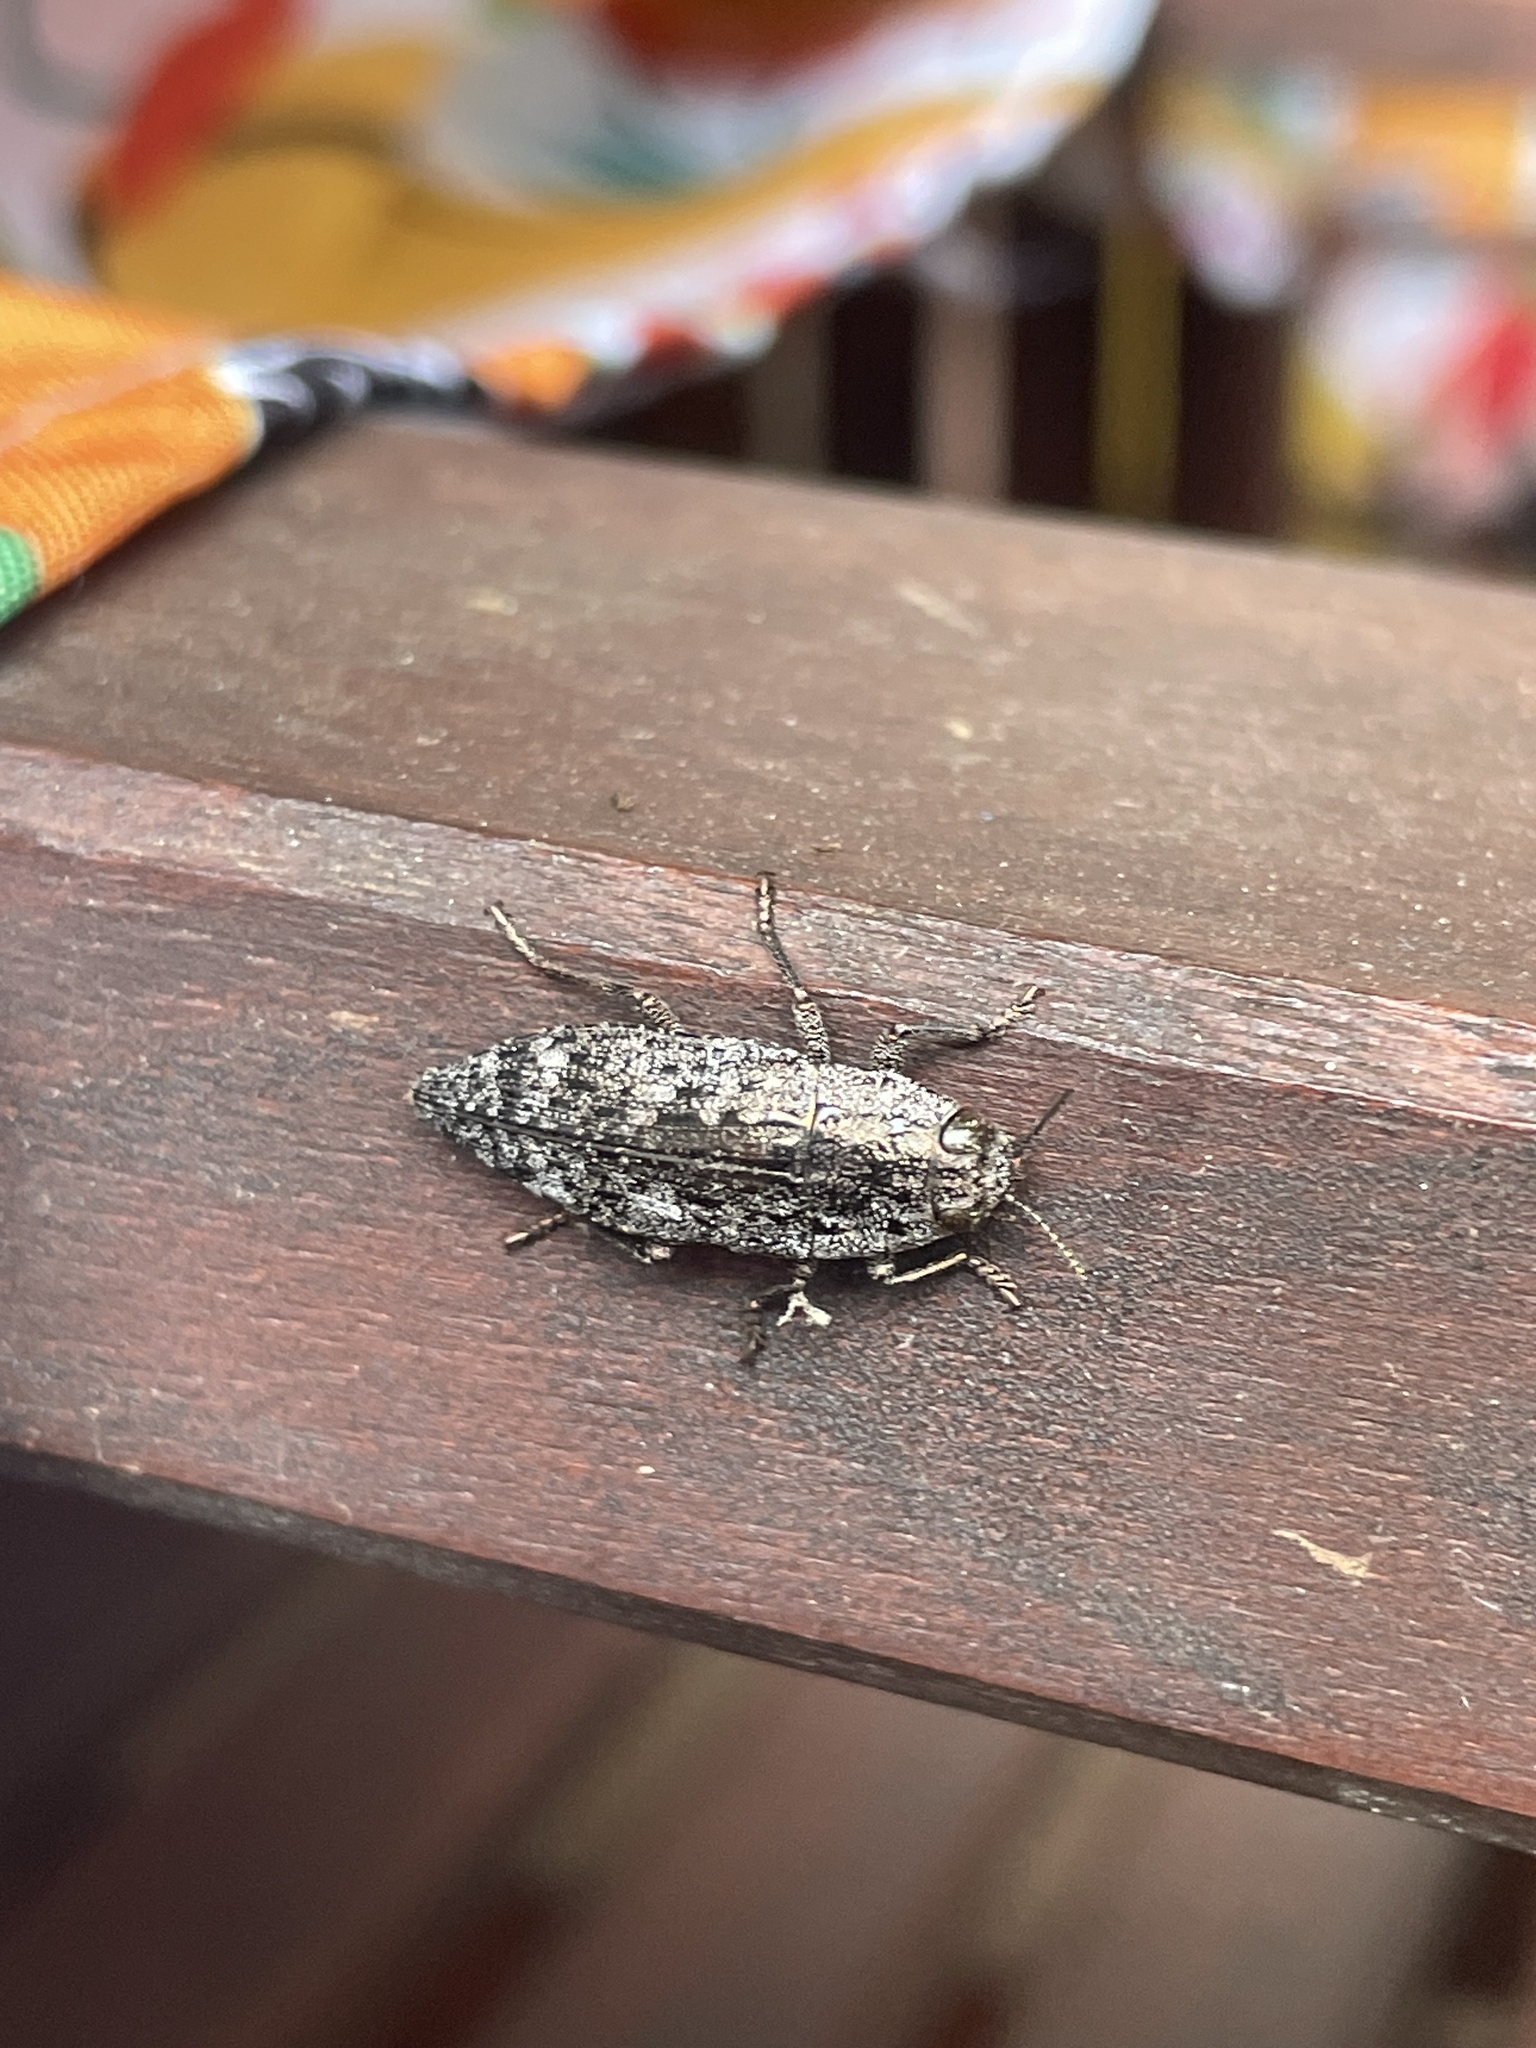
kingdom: Animalia
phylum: Arthropoda
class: Insecta
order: Coleoptera
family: Buprestidae
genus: Dicerca
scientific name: Dicerca obscura
